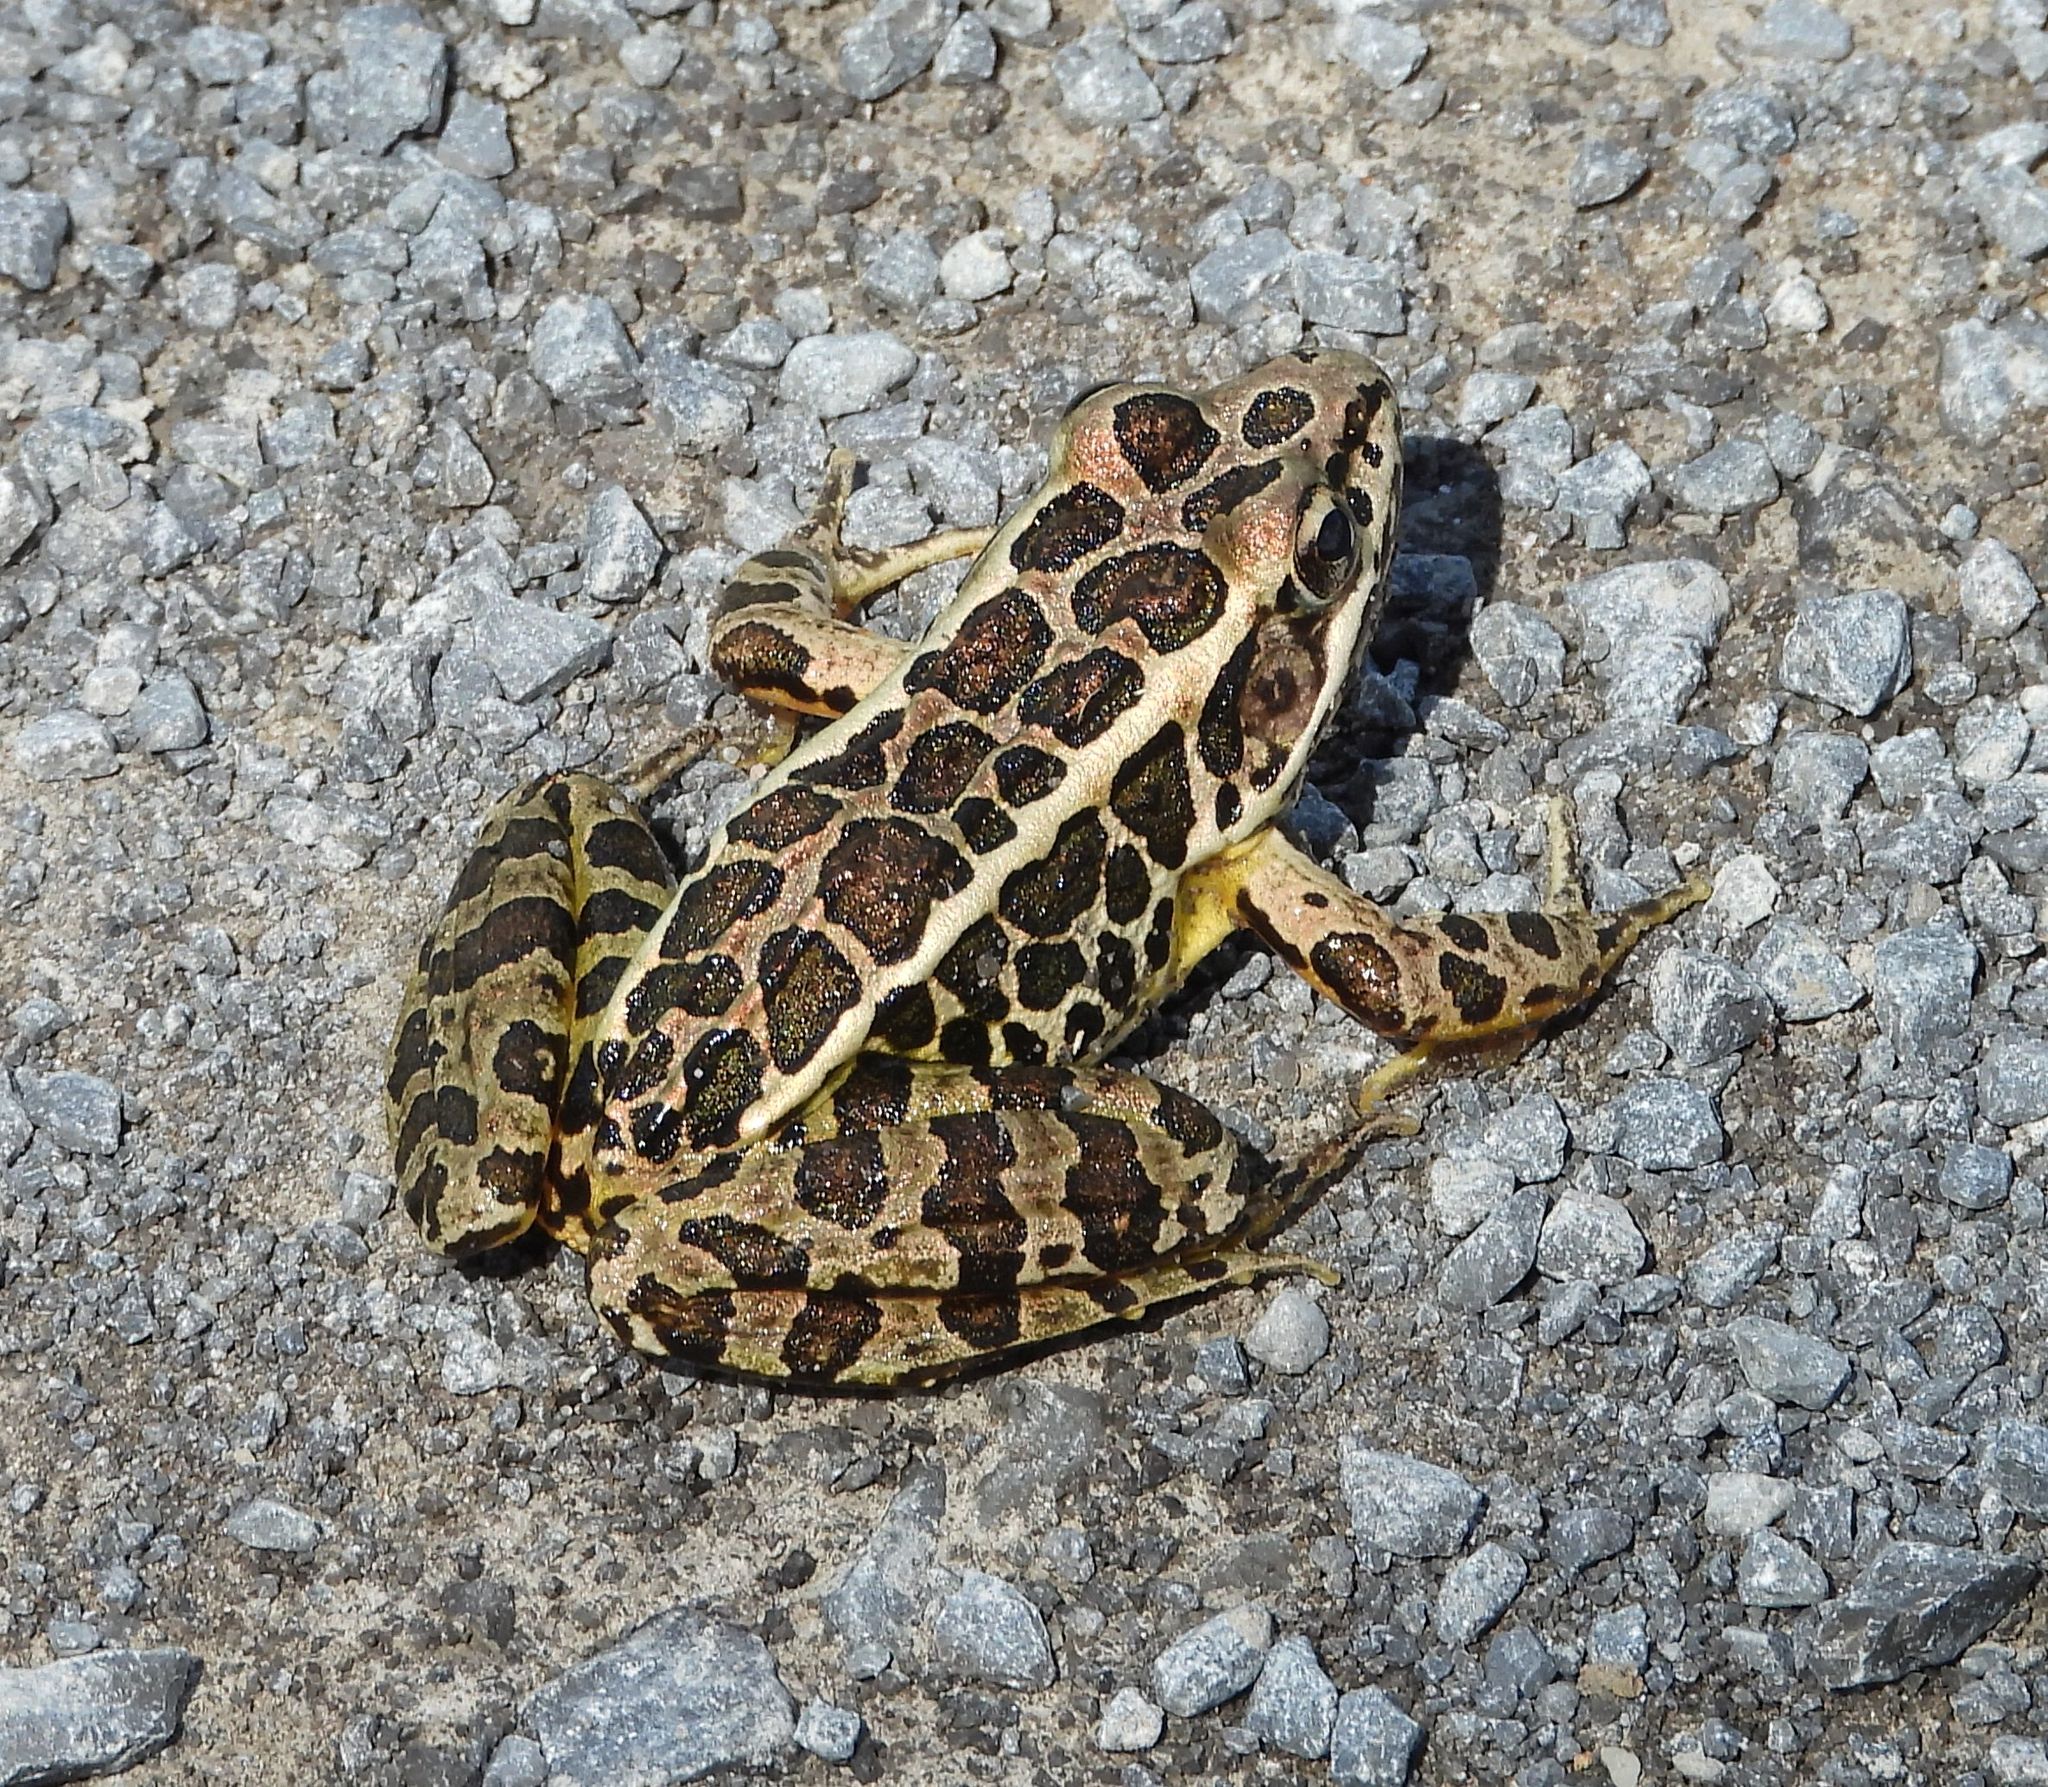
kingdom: Animalia
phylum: Chordata
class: Amphibia
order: Anura
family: Ranidae
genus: Lithobates
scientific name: Lithobates palustris
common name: Pickerel frog
